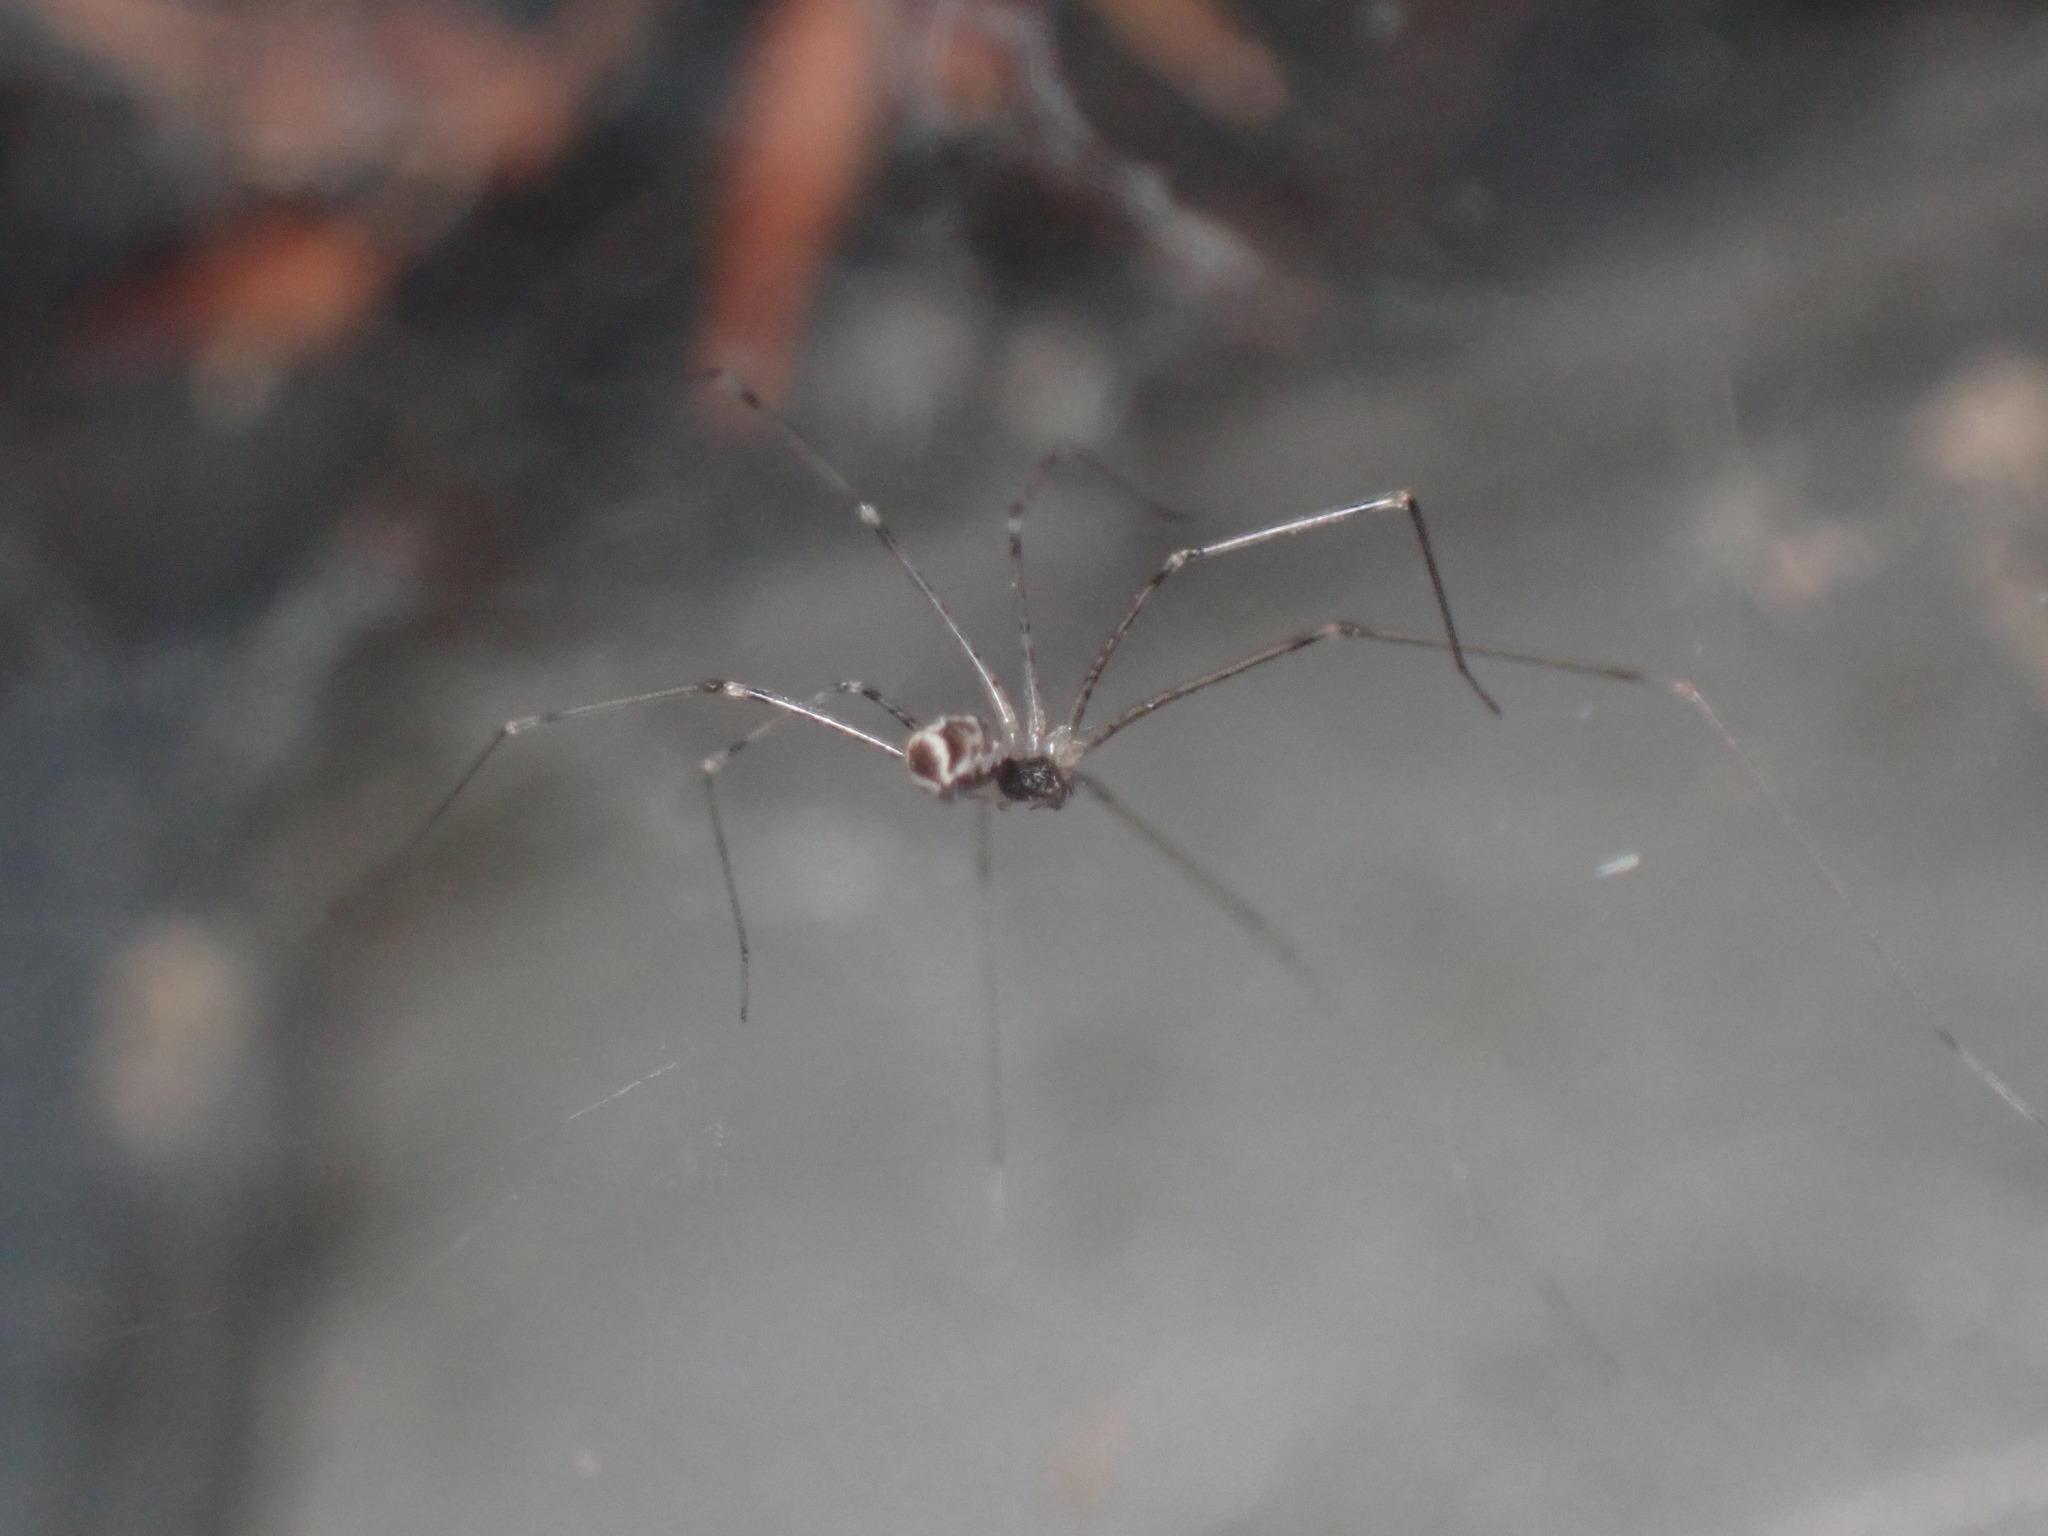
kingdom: Animalia
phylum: Arthropoda
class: Arachnida
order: Araneae
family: Pholcidae
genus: Holocnemus
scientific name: Holocnemus pluchei
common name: Marbled cellar spider
